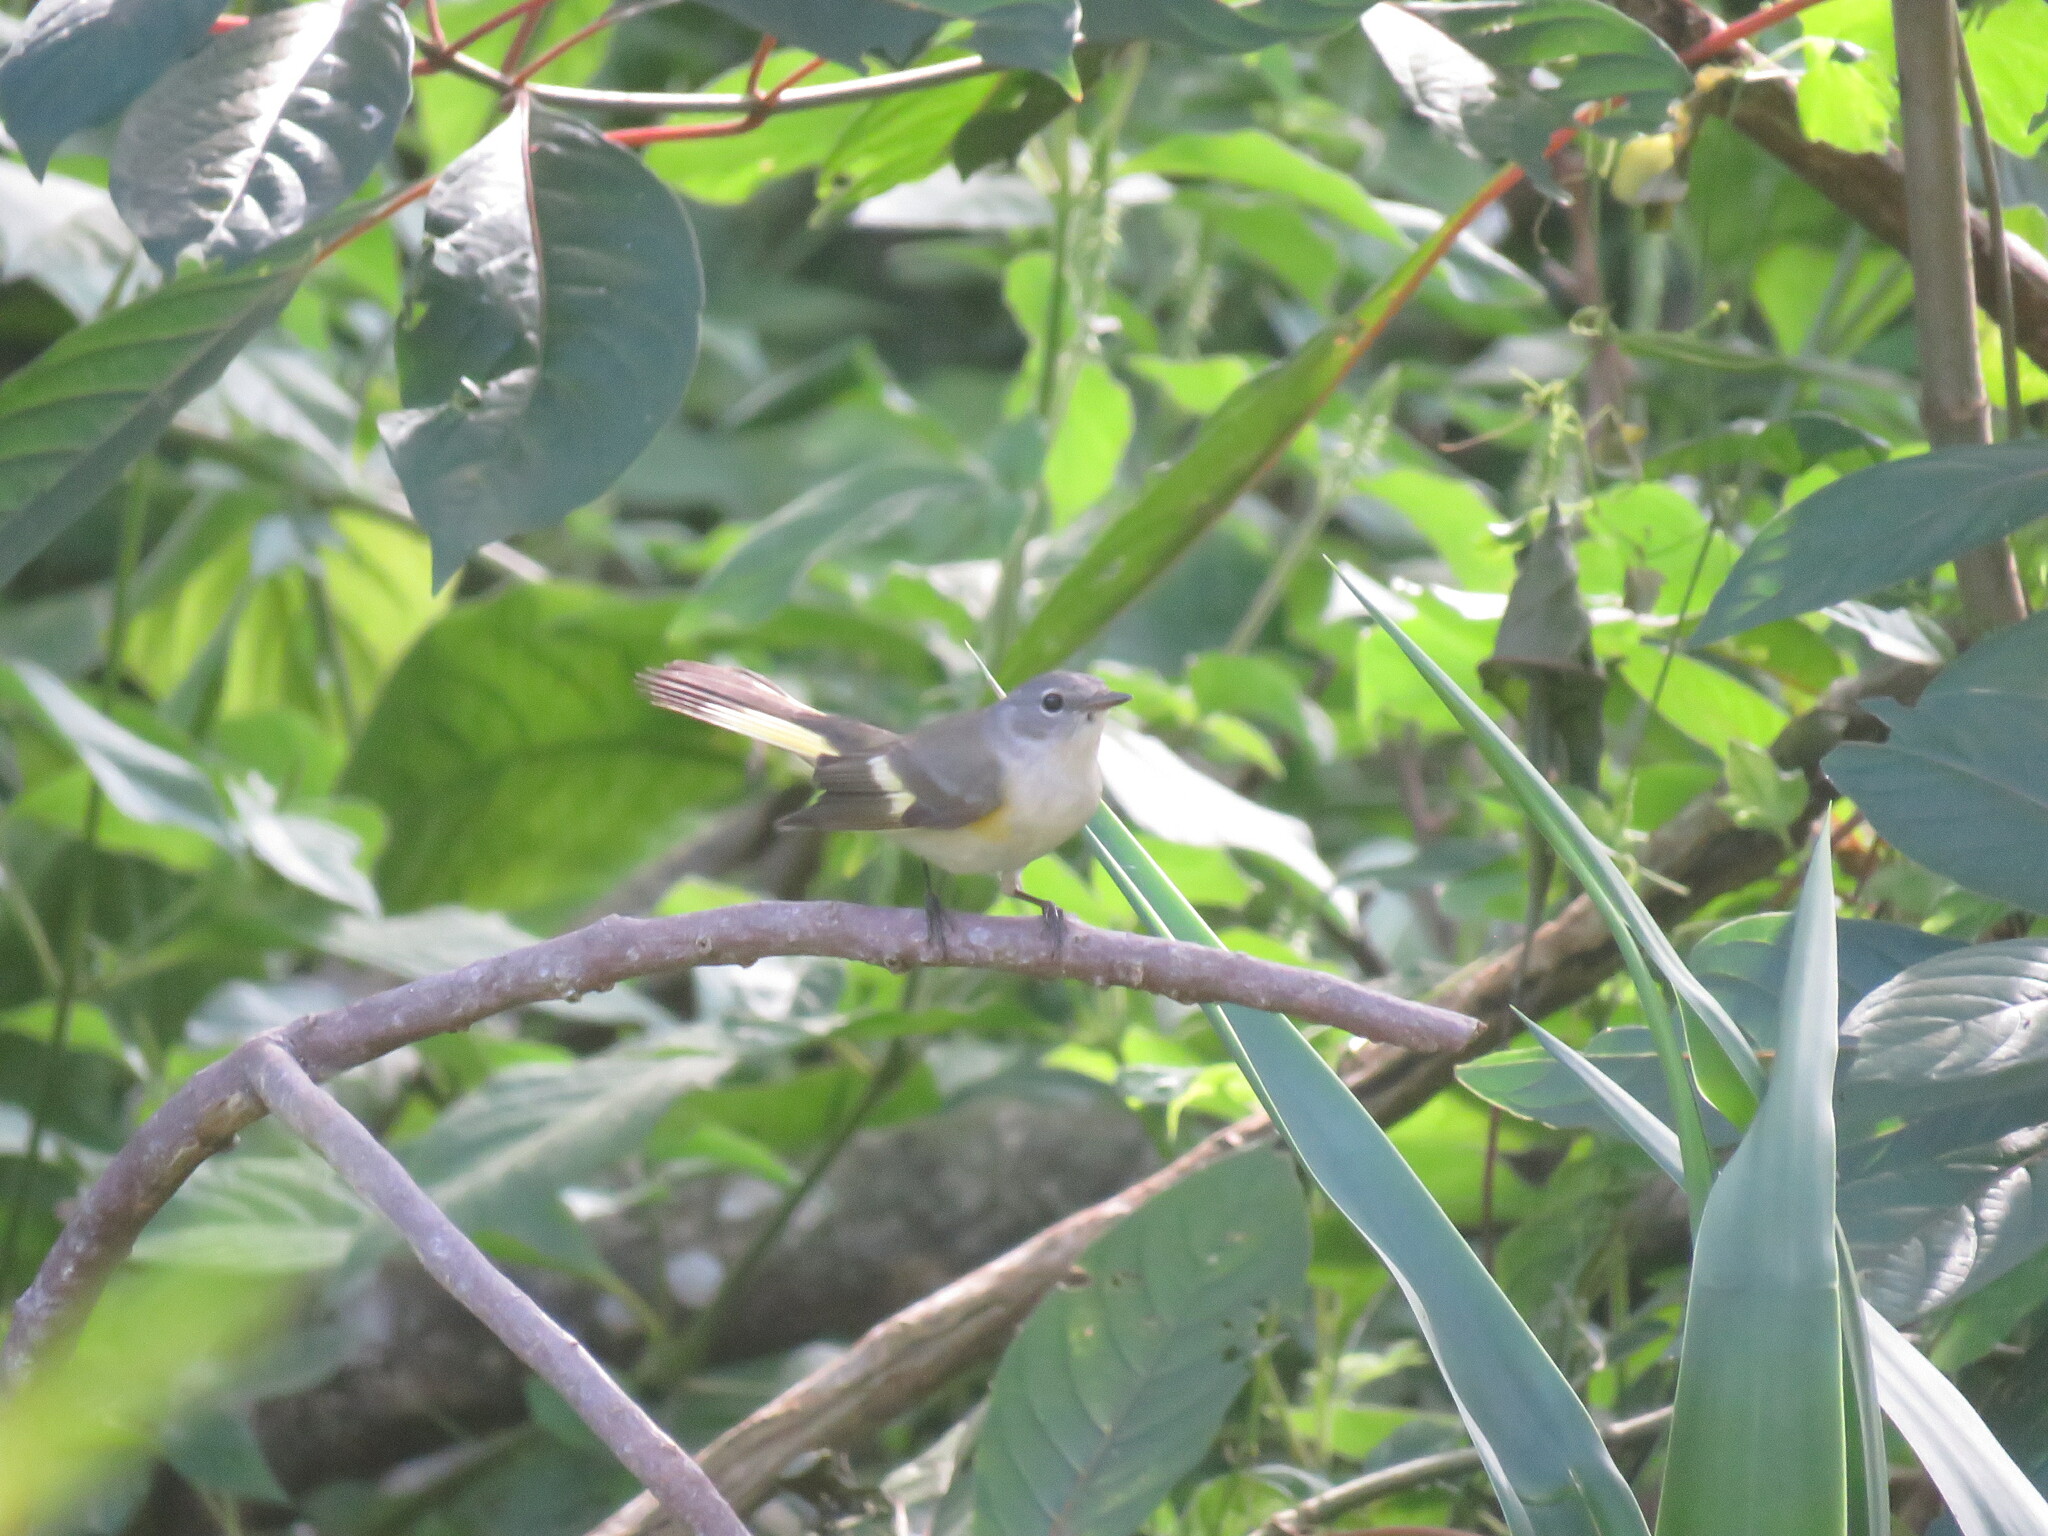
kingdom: Animalia
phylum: Chordata
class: Aves
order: Passeriformes
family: Parulidae
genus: Setophaga
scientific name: Setophaga ruticilla
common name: American redstart
